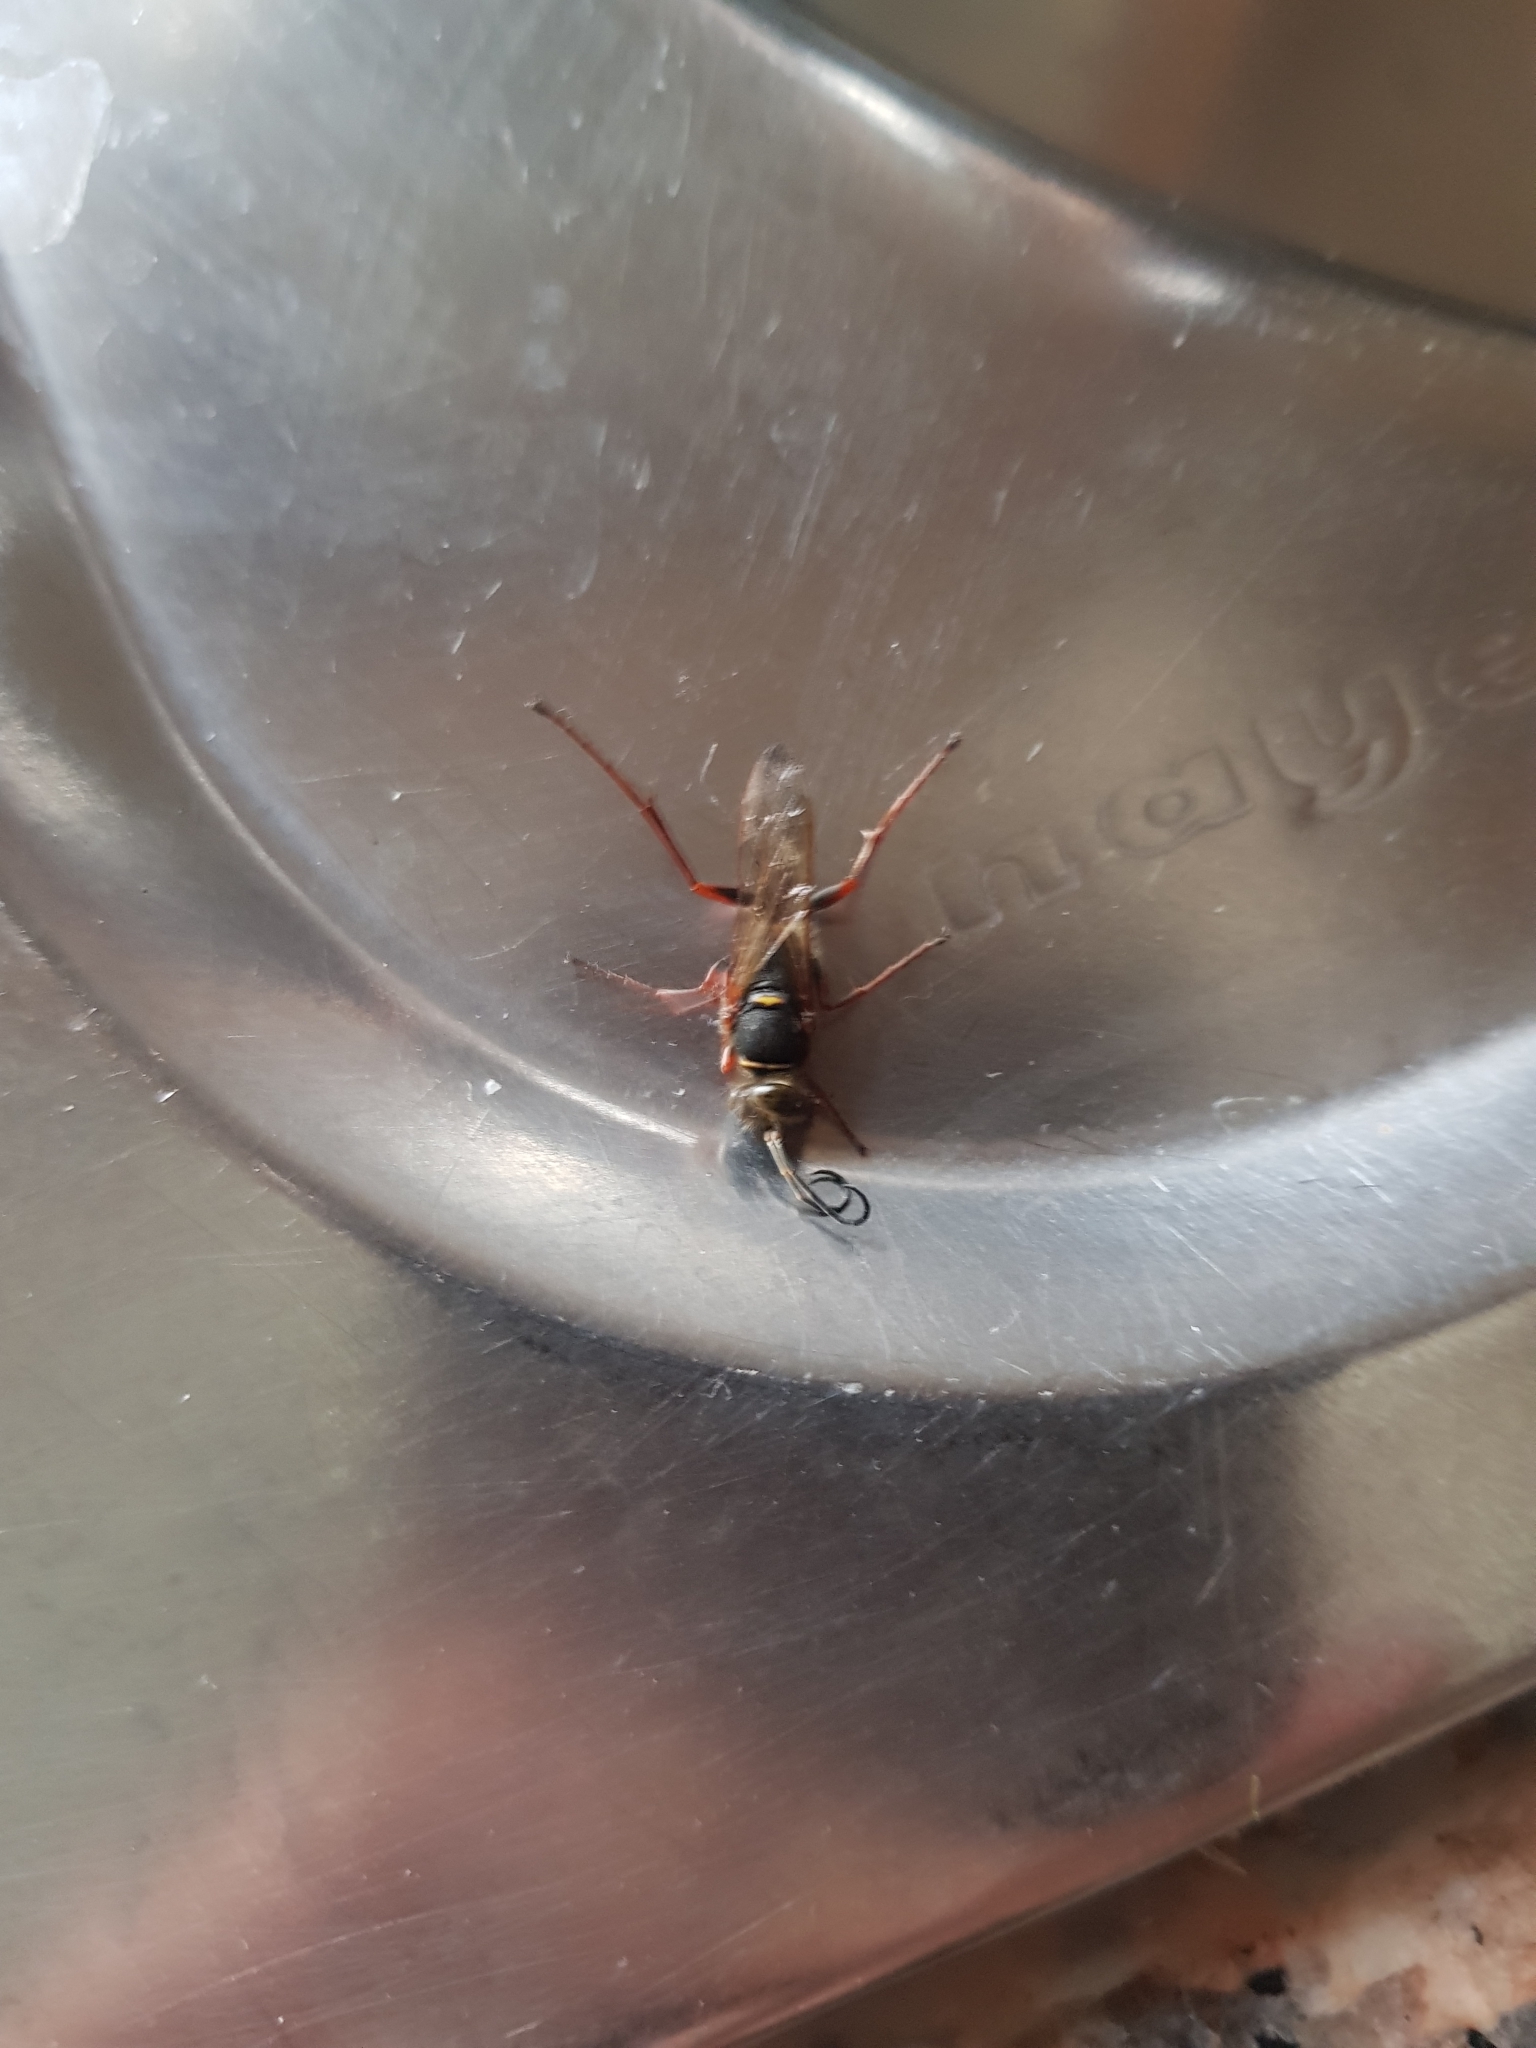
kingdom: Animalia
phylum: Arthropoda
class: Insecta
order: Hymenoptera
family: Sphecidae
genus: Sceliphron
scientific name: Sceliphron curvatum
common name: Pèlopèe
